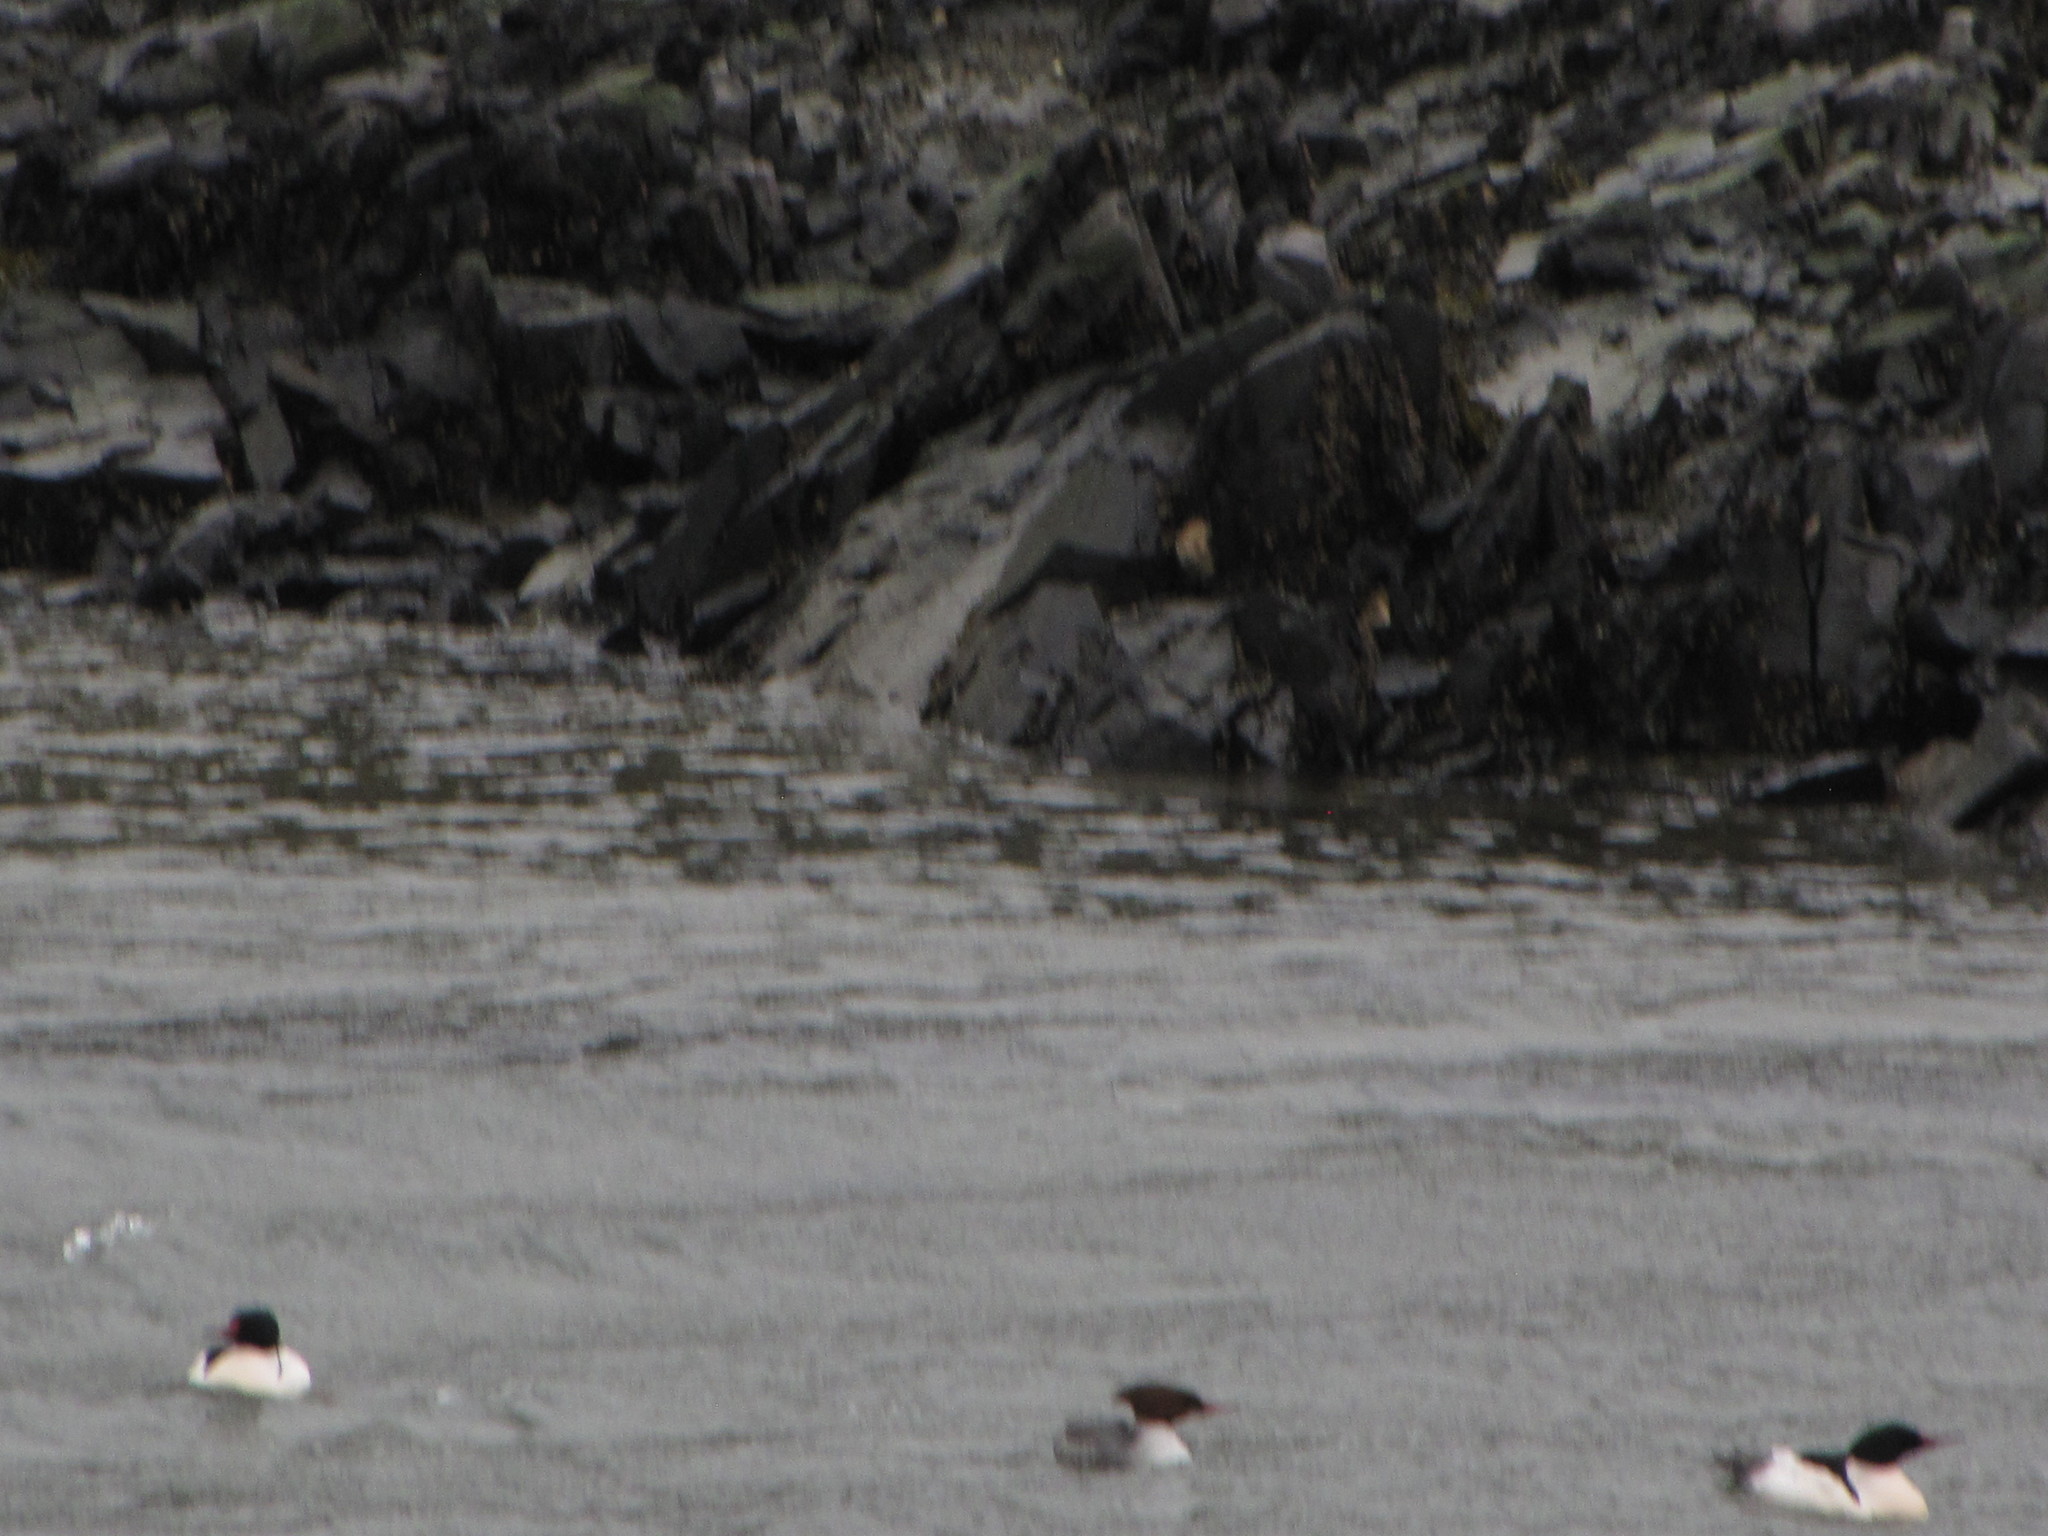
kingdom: Animalia
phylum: Chordata
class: Aves
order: Anseriformes
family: Anatidae
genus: Mergus
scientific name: Mergus merganser
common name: Common merganser
